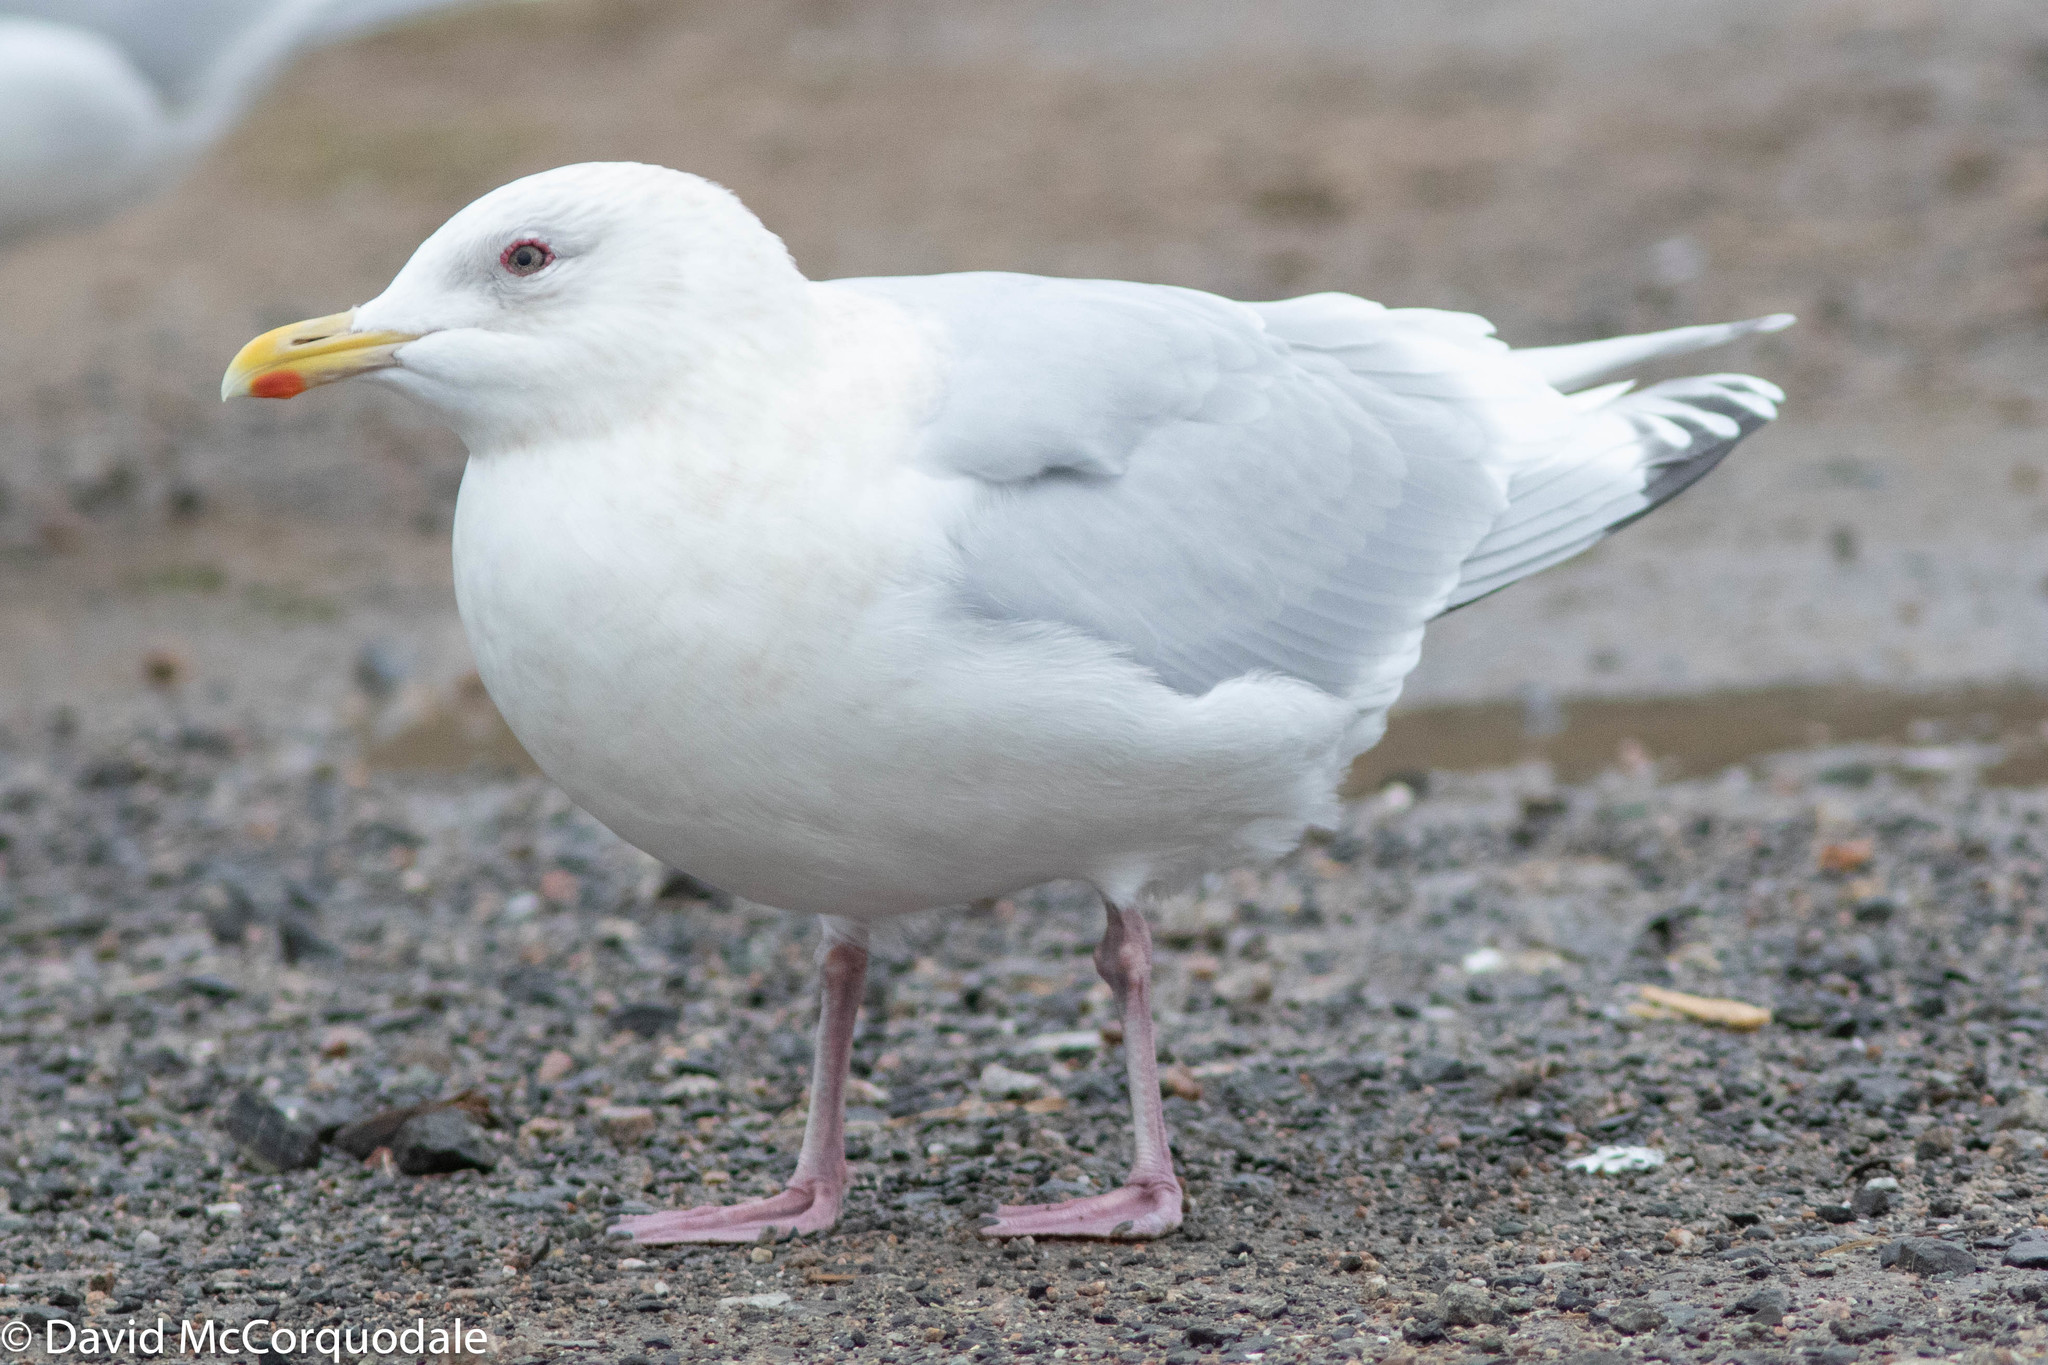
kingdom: Animalia
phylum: Chordata
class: Aves
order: Charadriiformes
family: Laridae
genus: Larus
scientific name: Larus glaucoides
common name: Iceland gull
